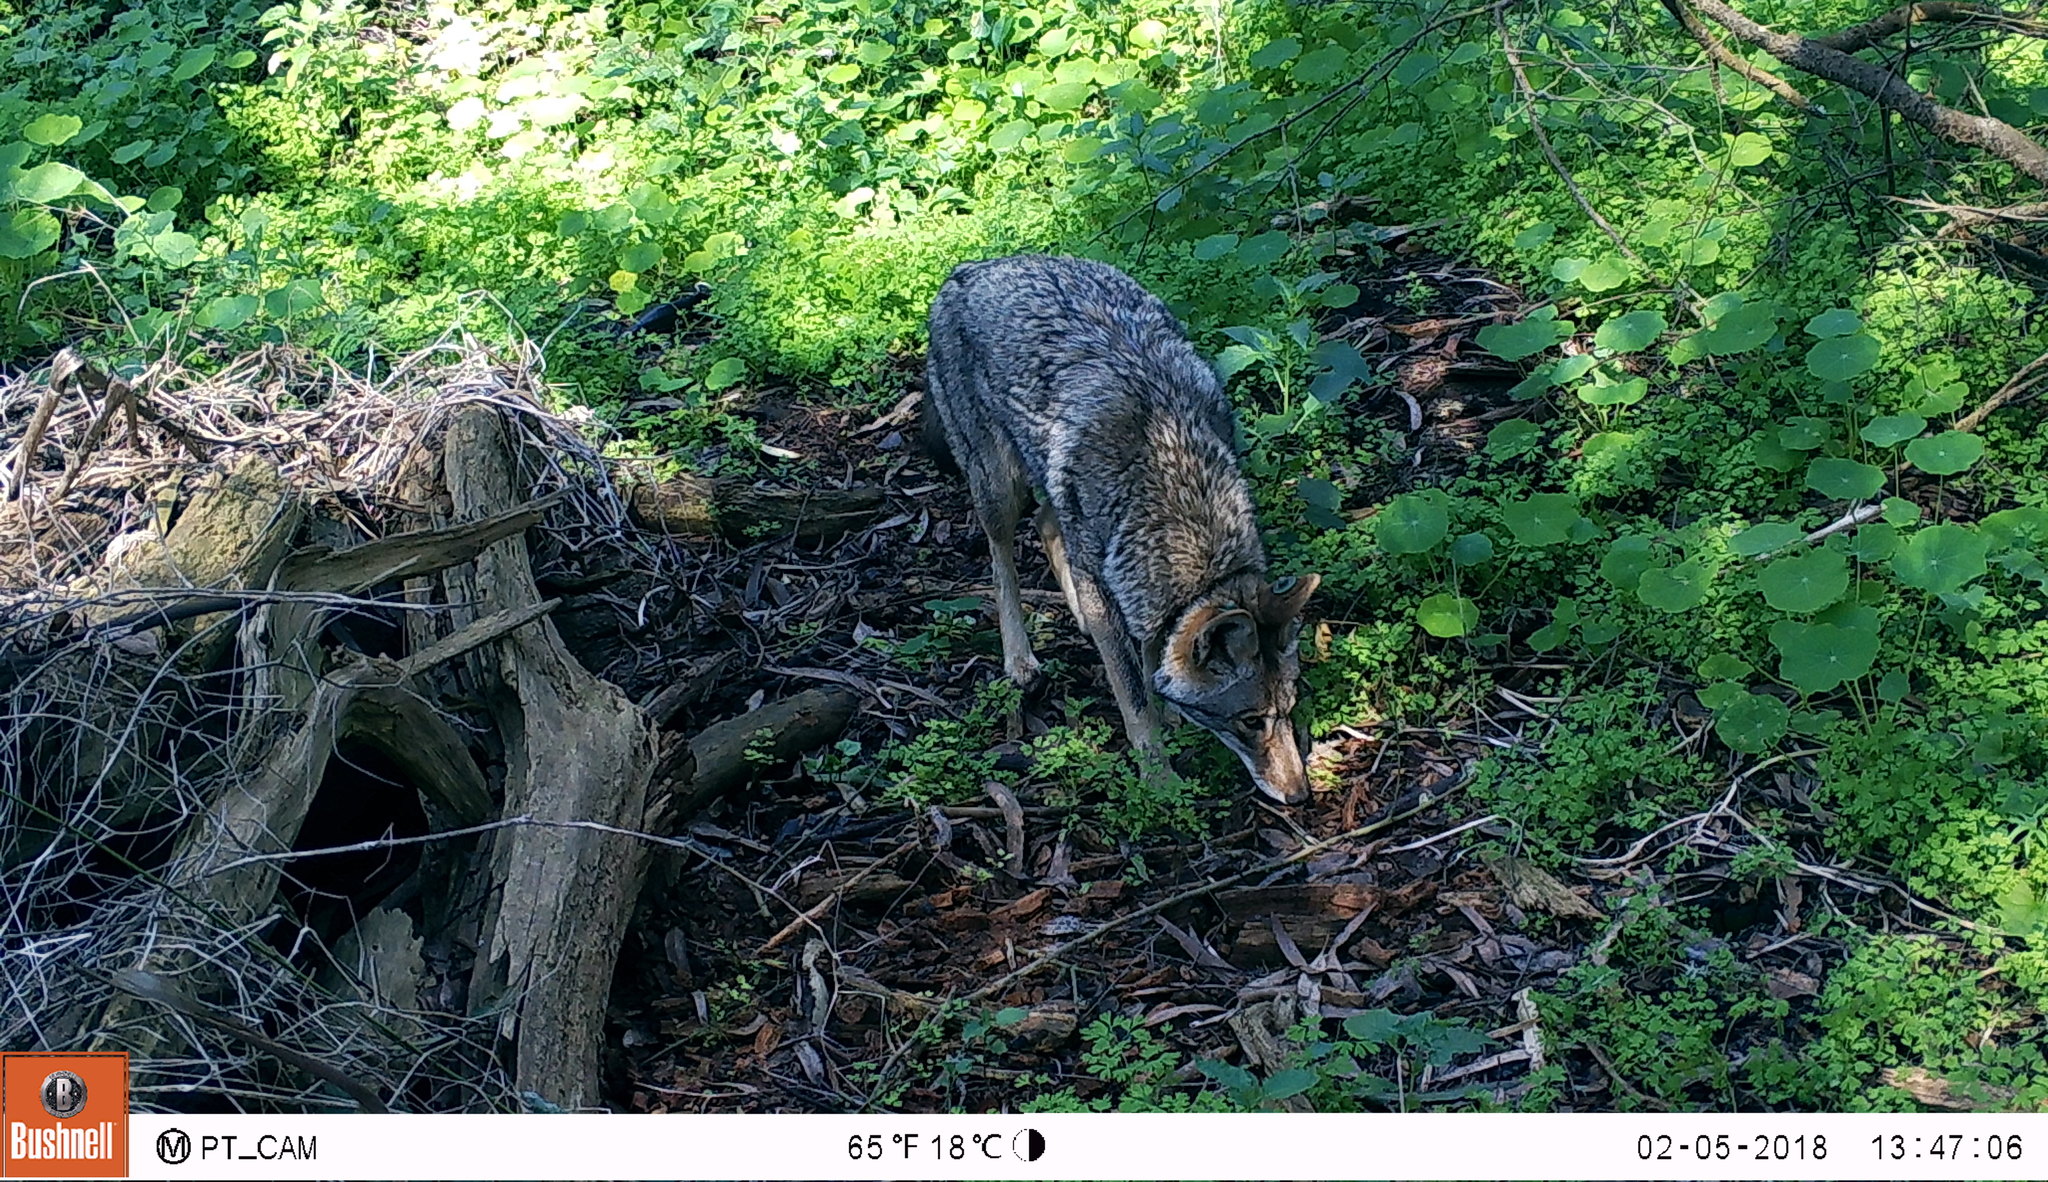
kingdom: Animalia
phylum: Chordata
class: Mammalia
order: Carnivora
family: Canidae
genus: Canis
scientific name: Canis latrans
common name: Coyote
